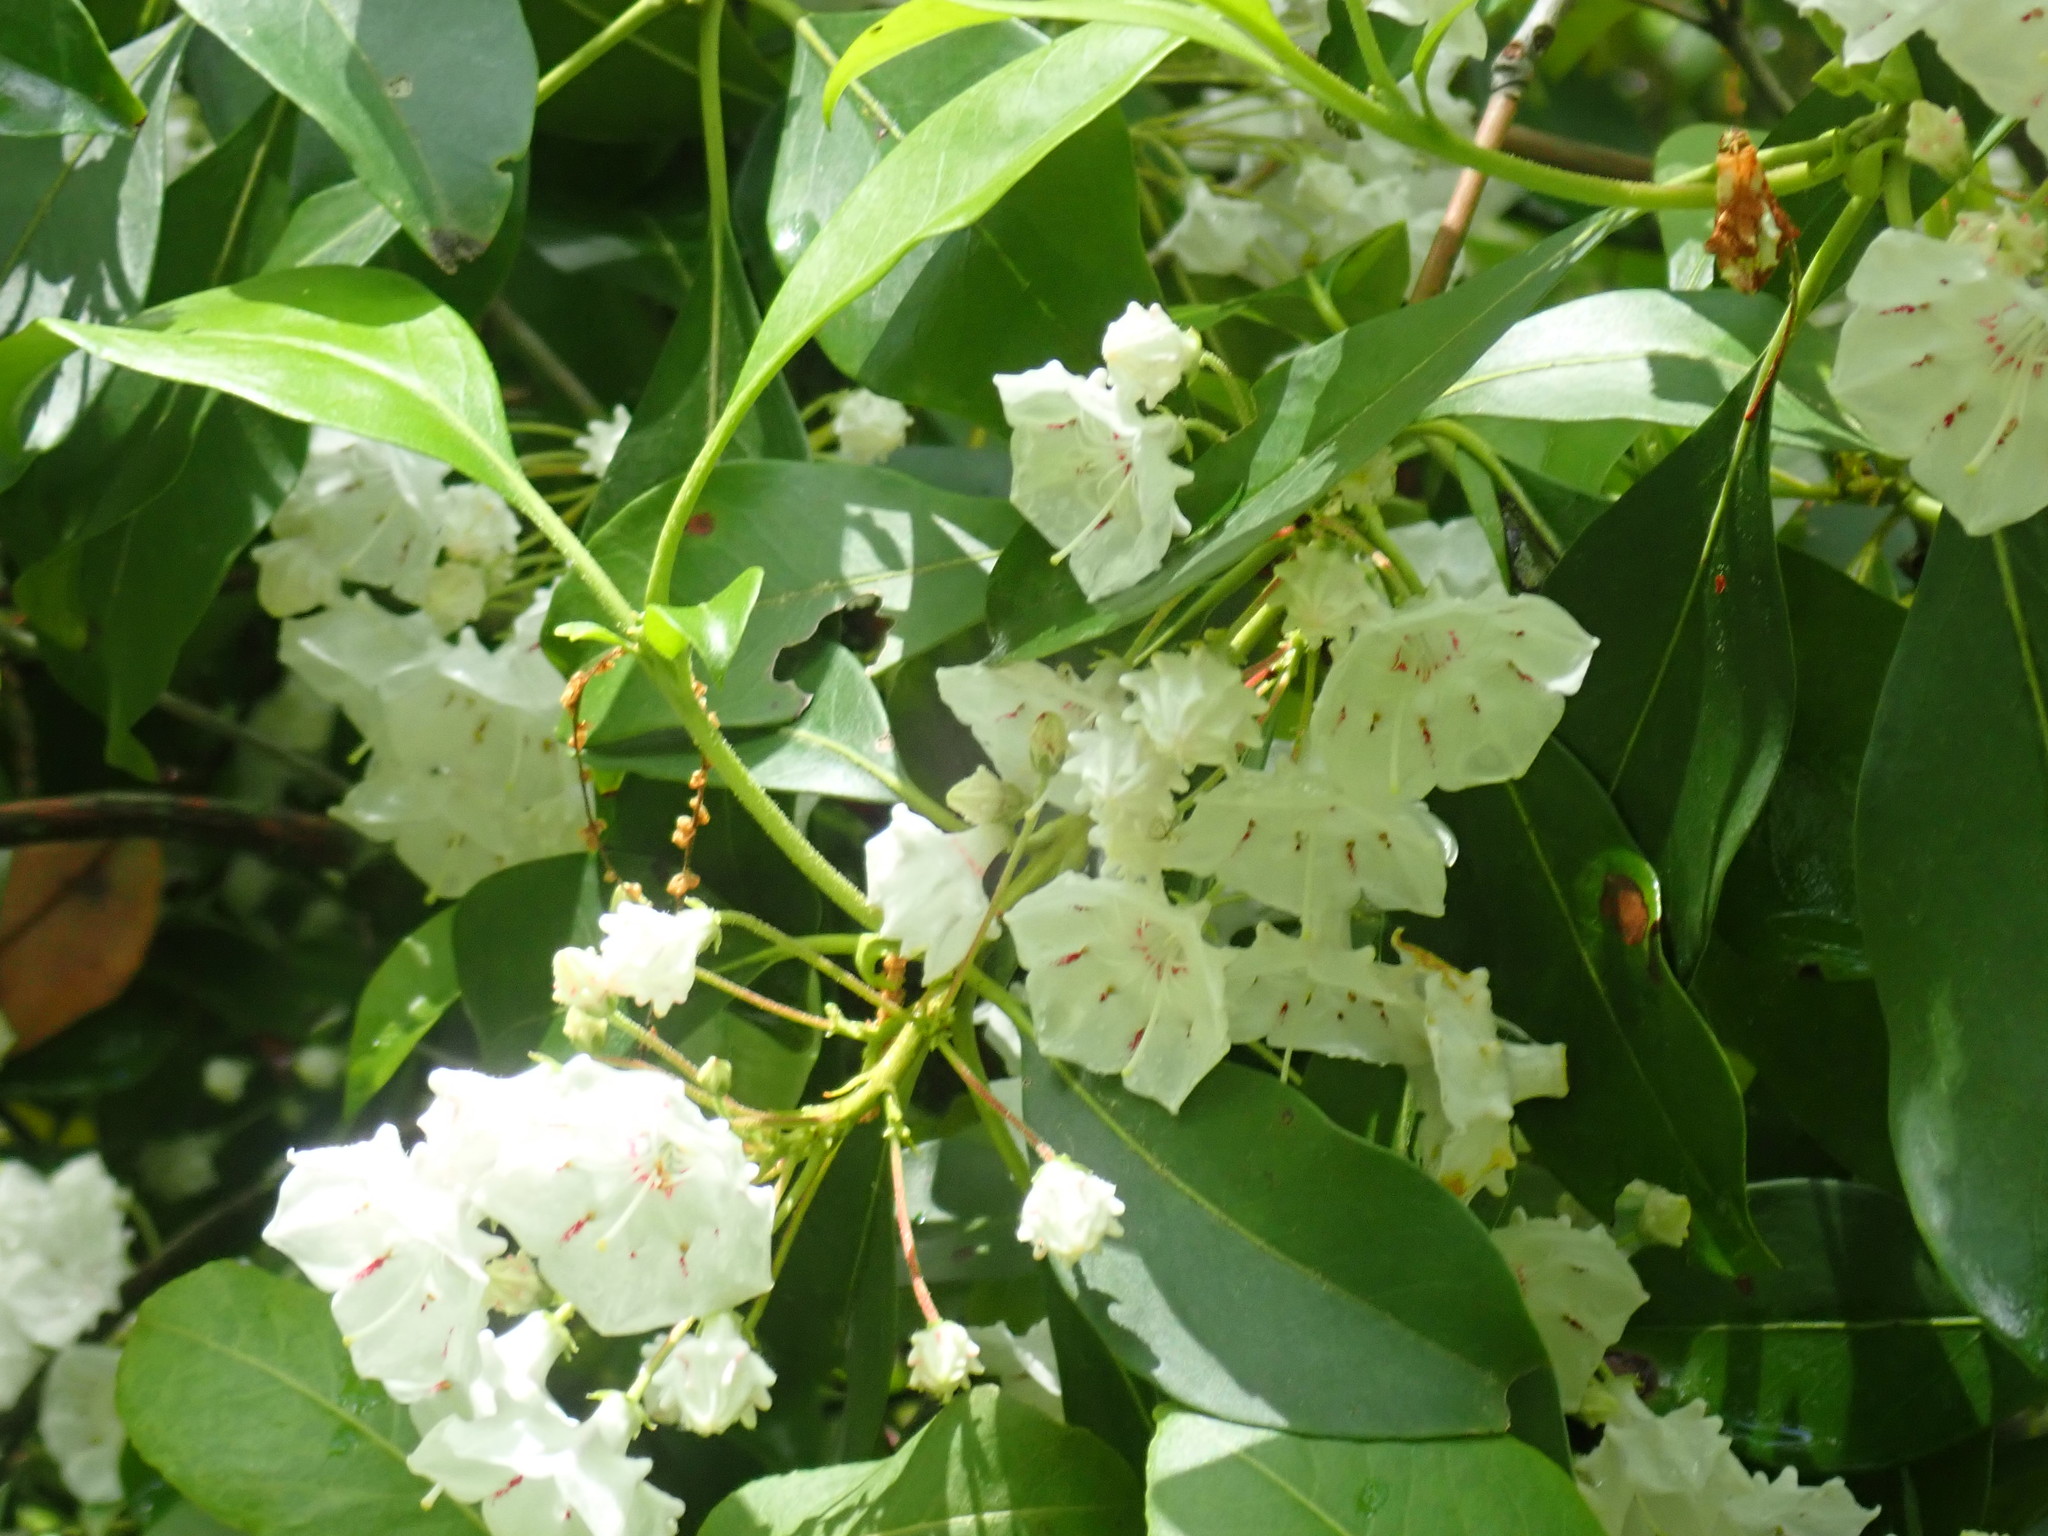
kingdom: Plantae
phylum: Tracheophyta
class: Magnoliopsida
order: Ericales
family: Ericaceae
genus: Kalmia
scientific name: Kalmia latifolia
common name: Mountain-laurel
